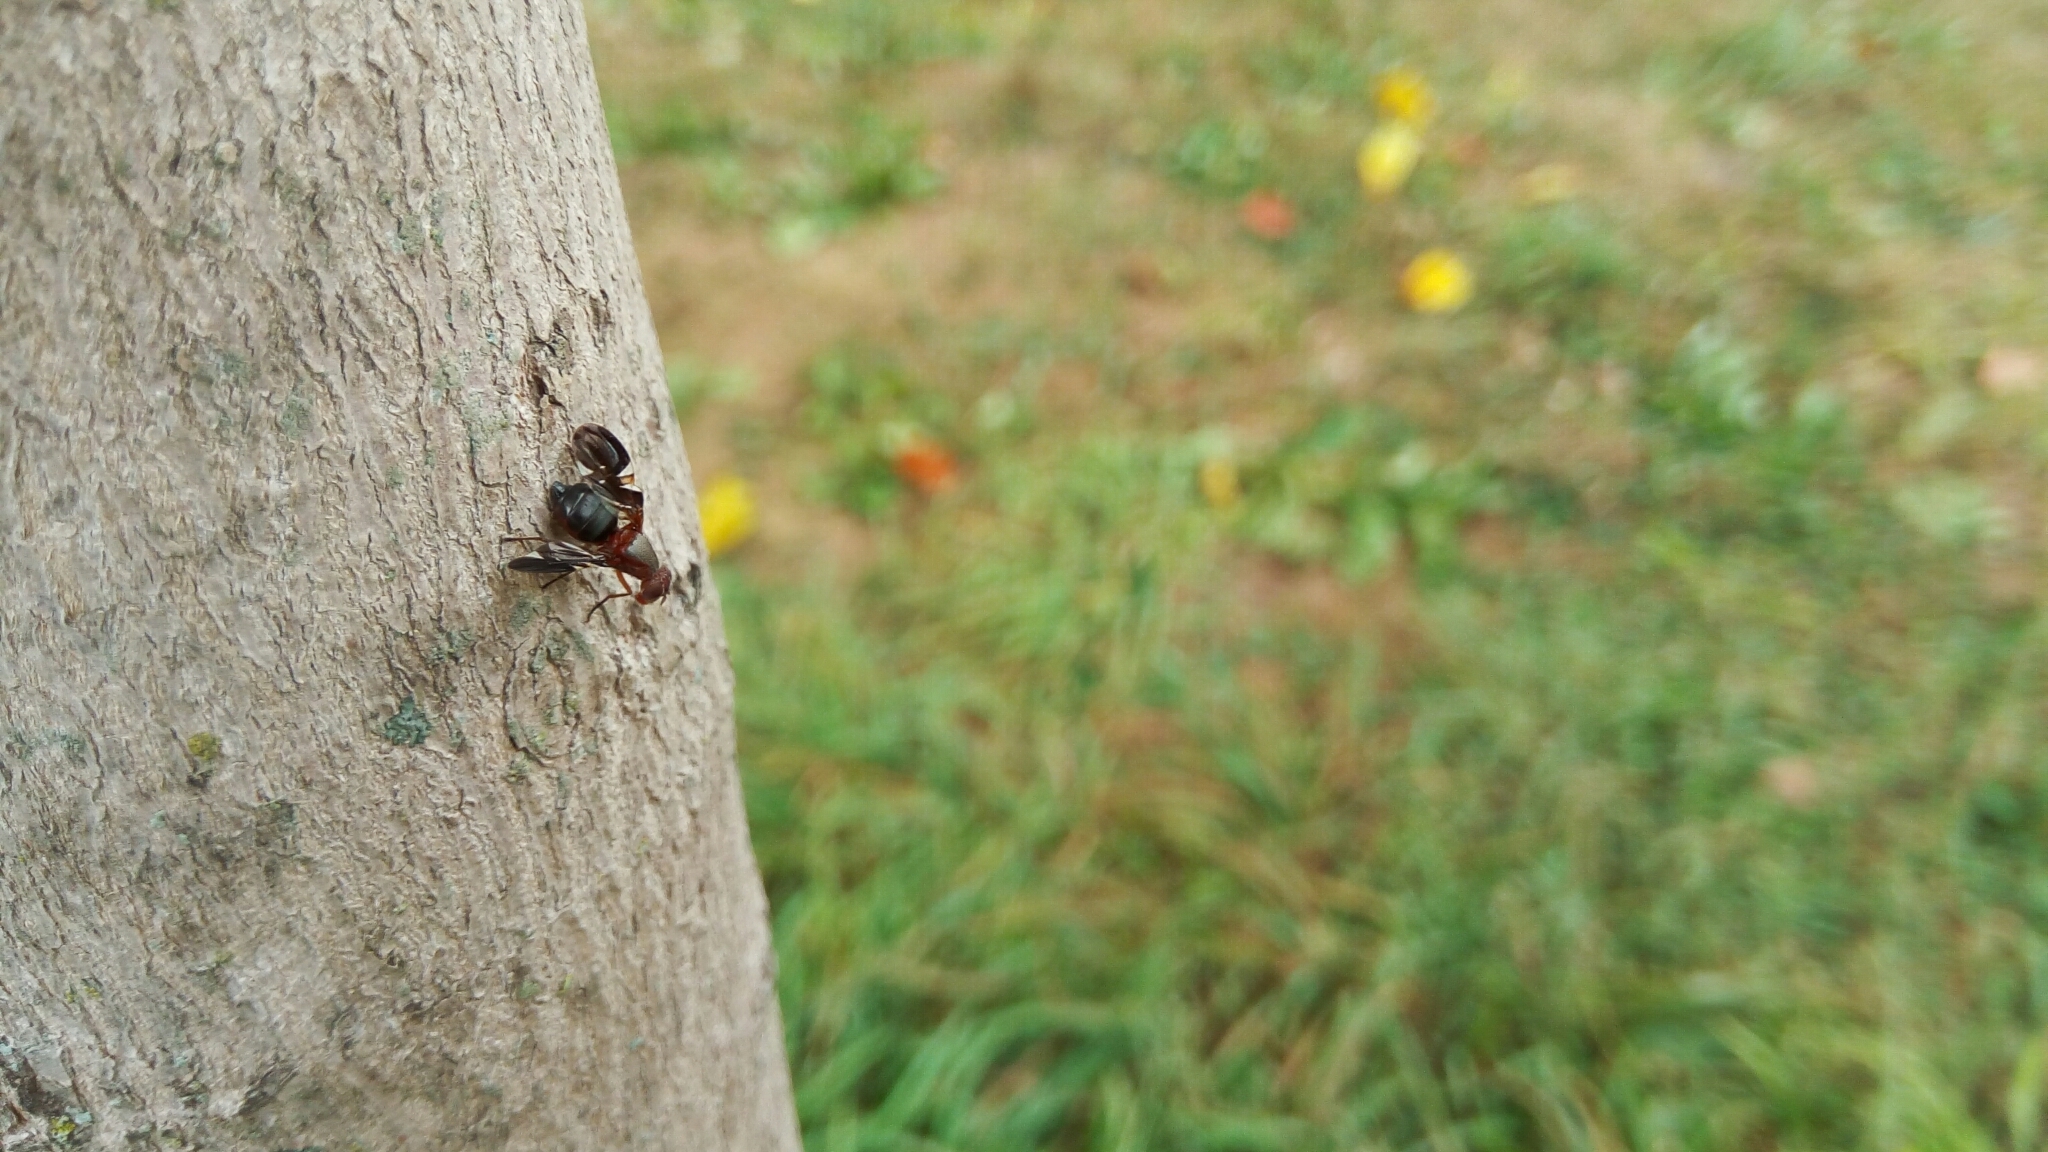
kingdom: Animalia
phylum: Arthropoda
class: Insecta
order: Diptera
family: Ulidiidae
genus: Delphinia
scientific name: Delphinia picta
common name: Common picture-winged fly
